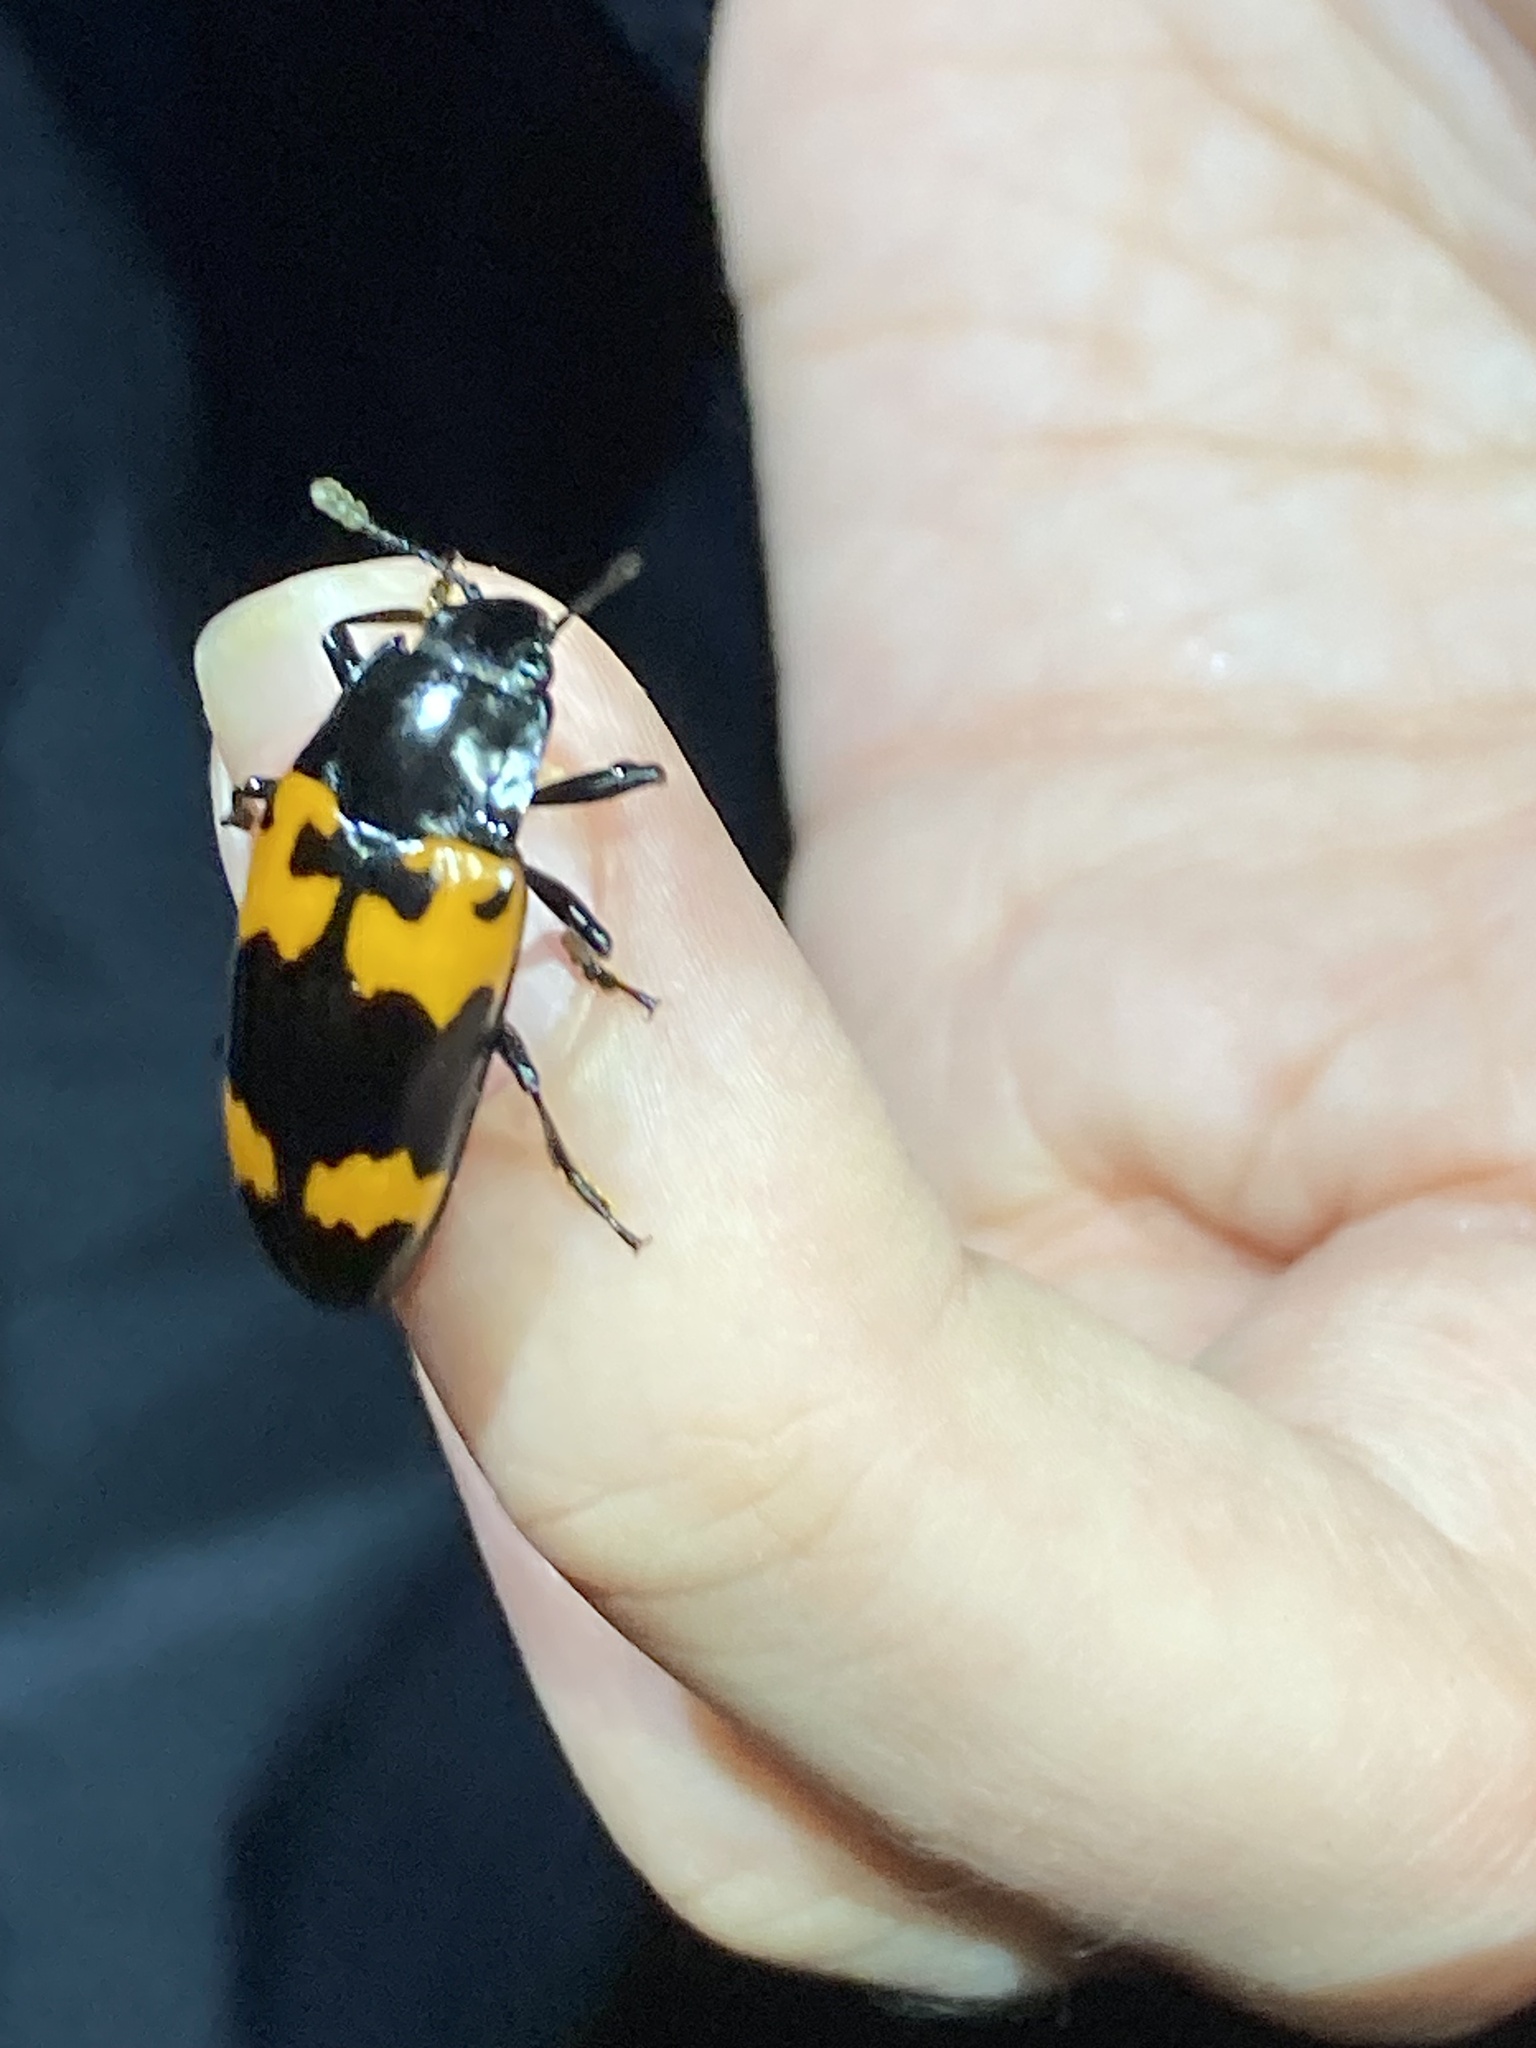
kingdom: Animalia
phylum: Arthropoda
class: Insecta
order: Coleoptera
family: Erotylidae
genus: Megalodacne
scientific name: Megalodacne heros
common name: Pleasing fungus beetle
